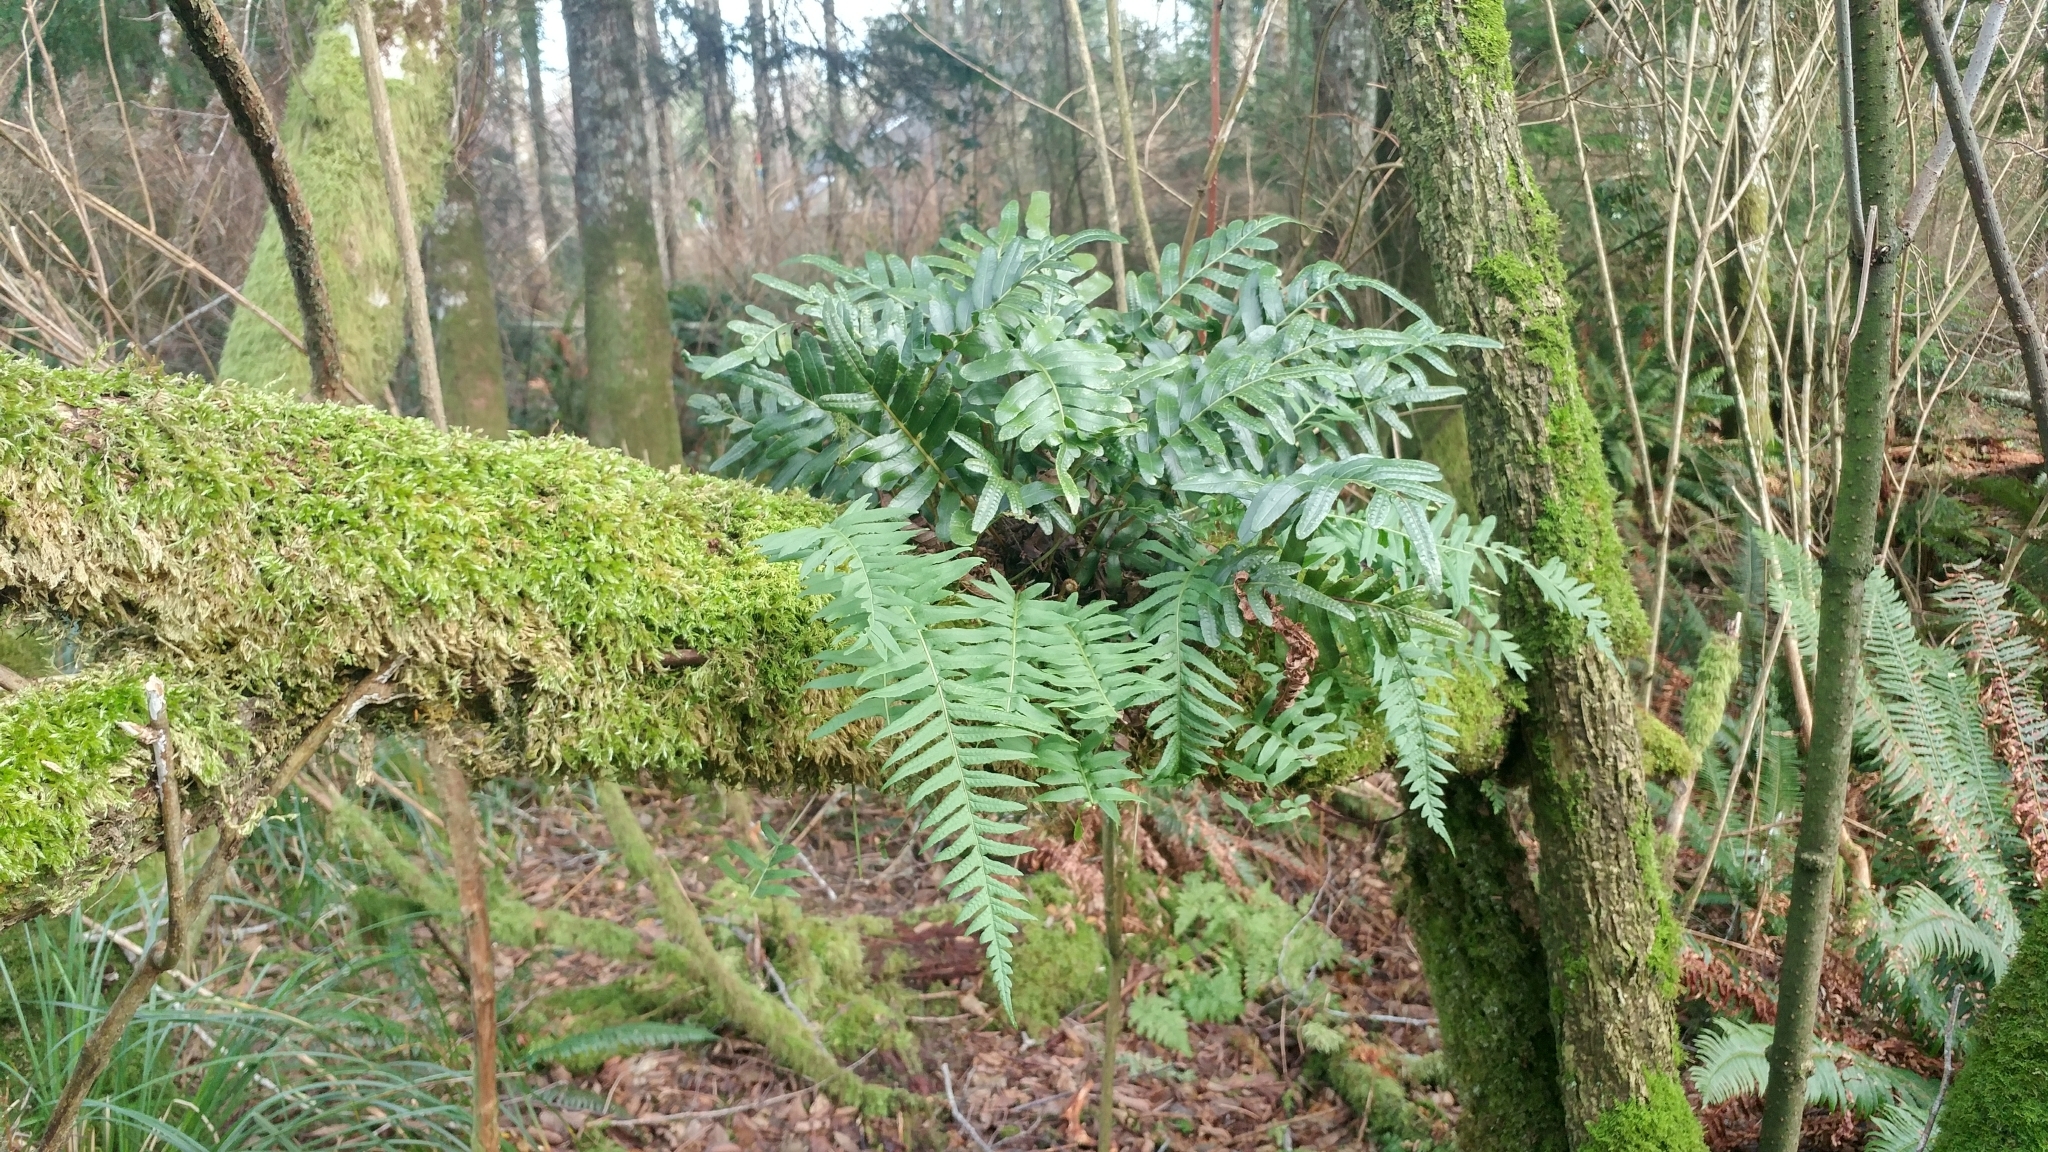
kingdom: Plantae
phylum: Tracheophyta
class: Polypodiopsida
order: Polypodiales
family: Polypodiaceae
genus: Polypodium
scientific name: Polypodium scouleri
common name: Scouler's polypody
